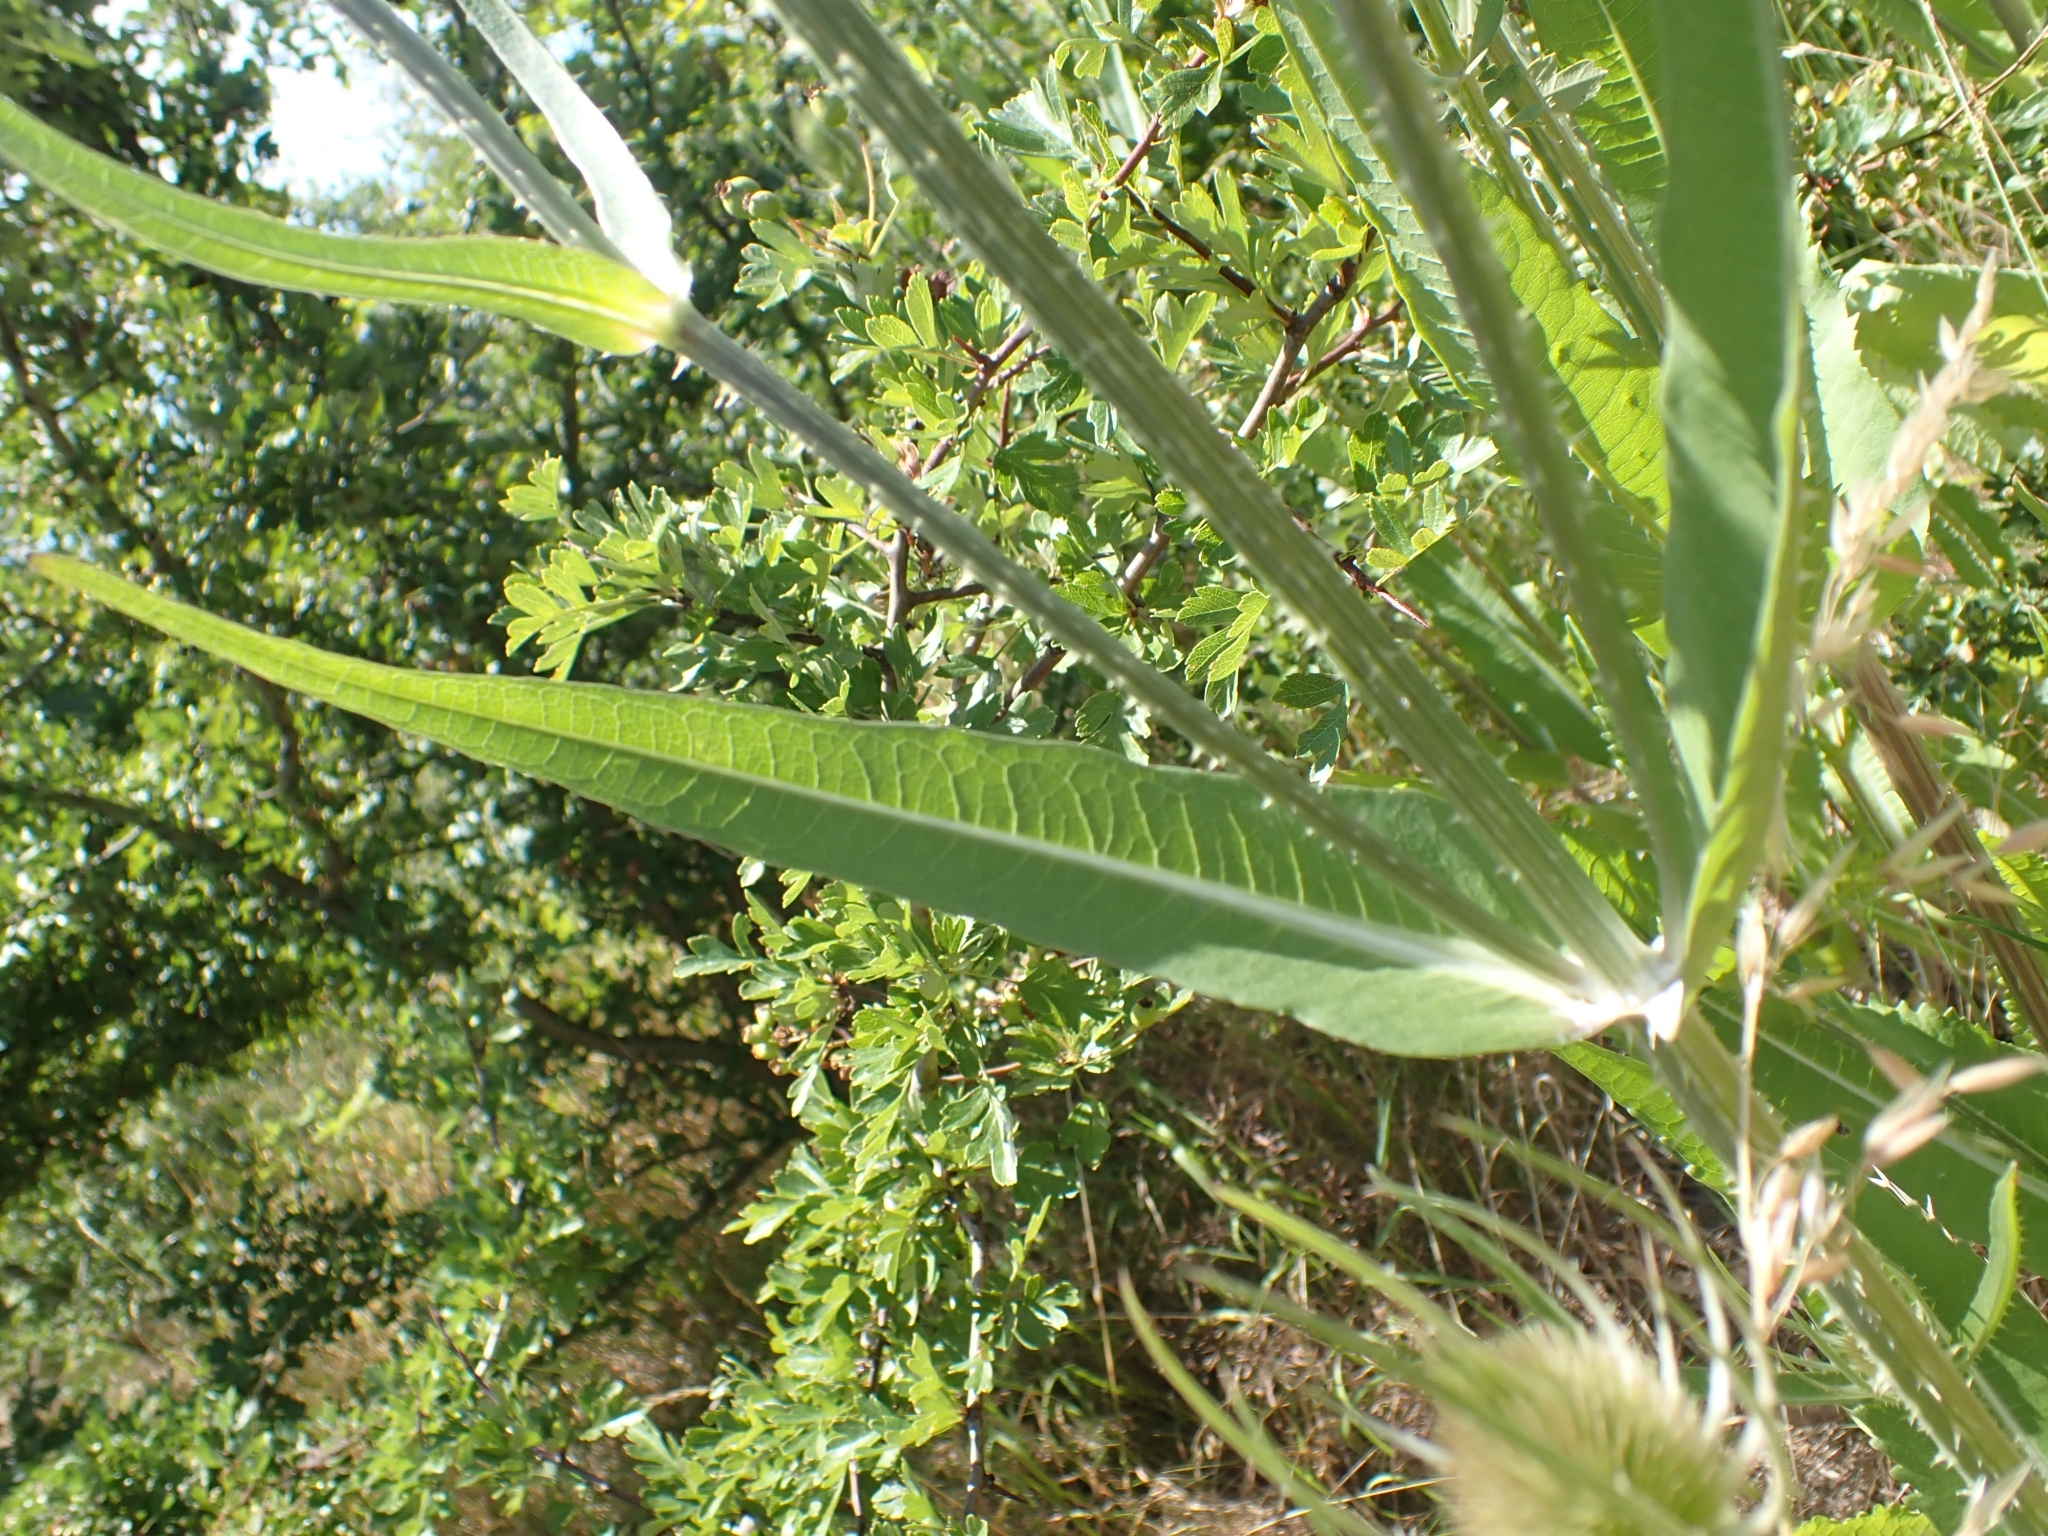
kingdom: Plantae
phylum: Tracheophyta
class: Magnoliopsida
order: Dipsacales
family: Caprifoliaceae
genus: Dipsacus
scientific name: Dipsacus fullonum
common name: Teasel
